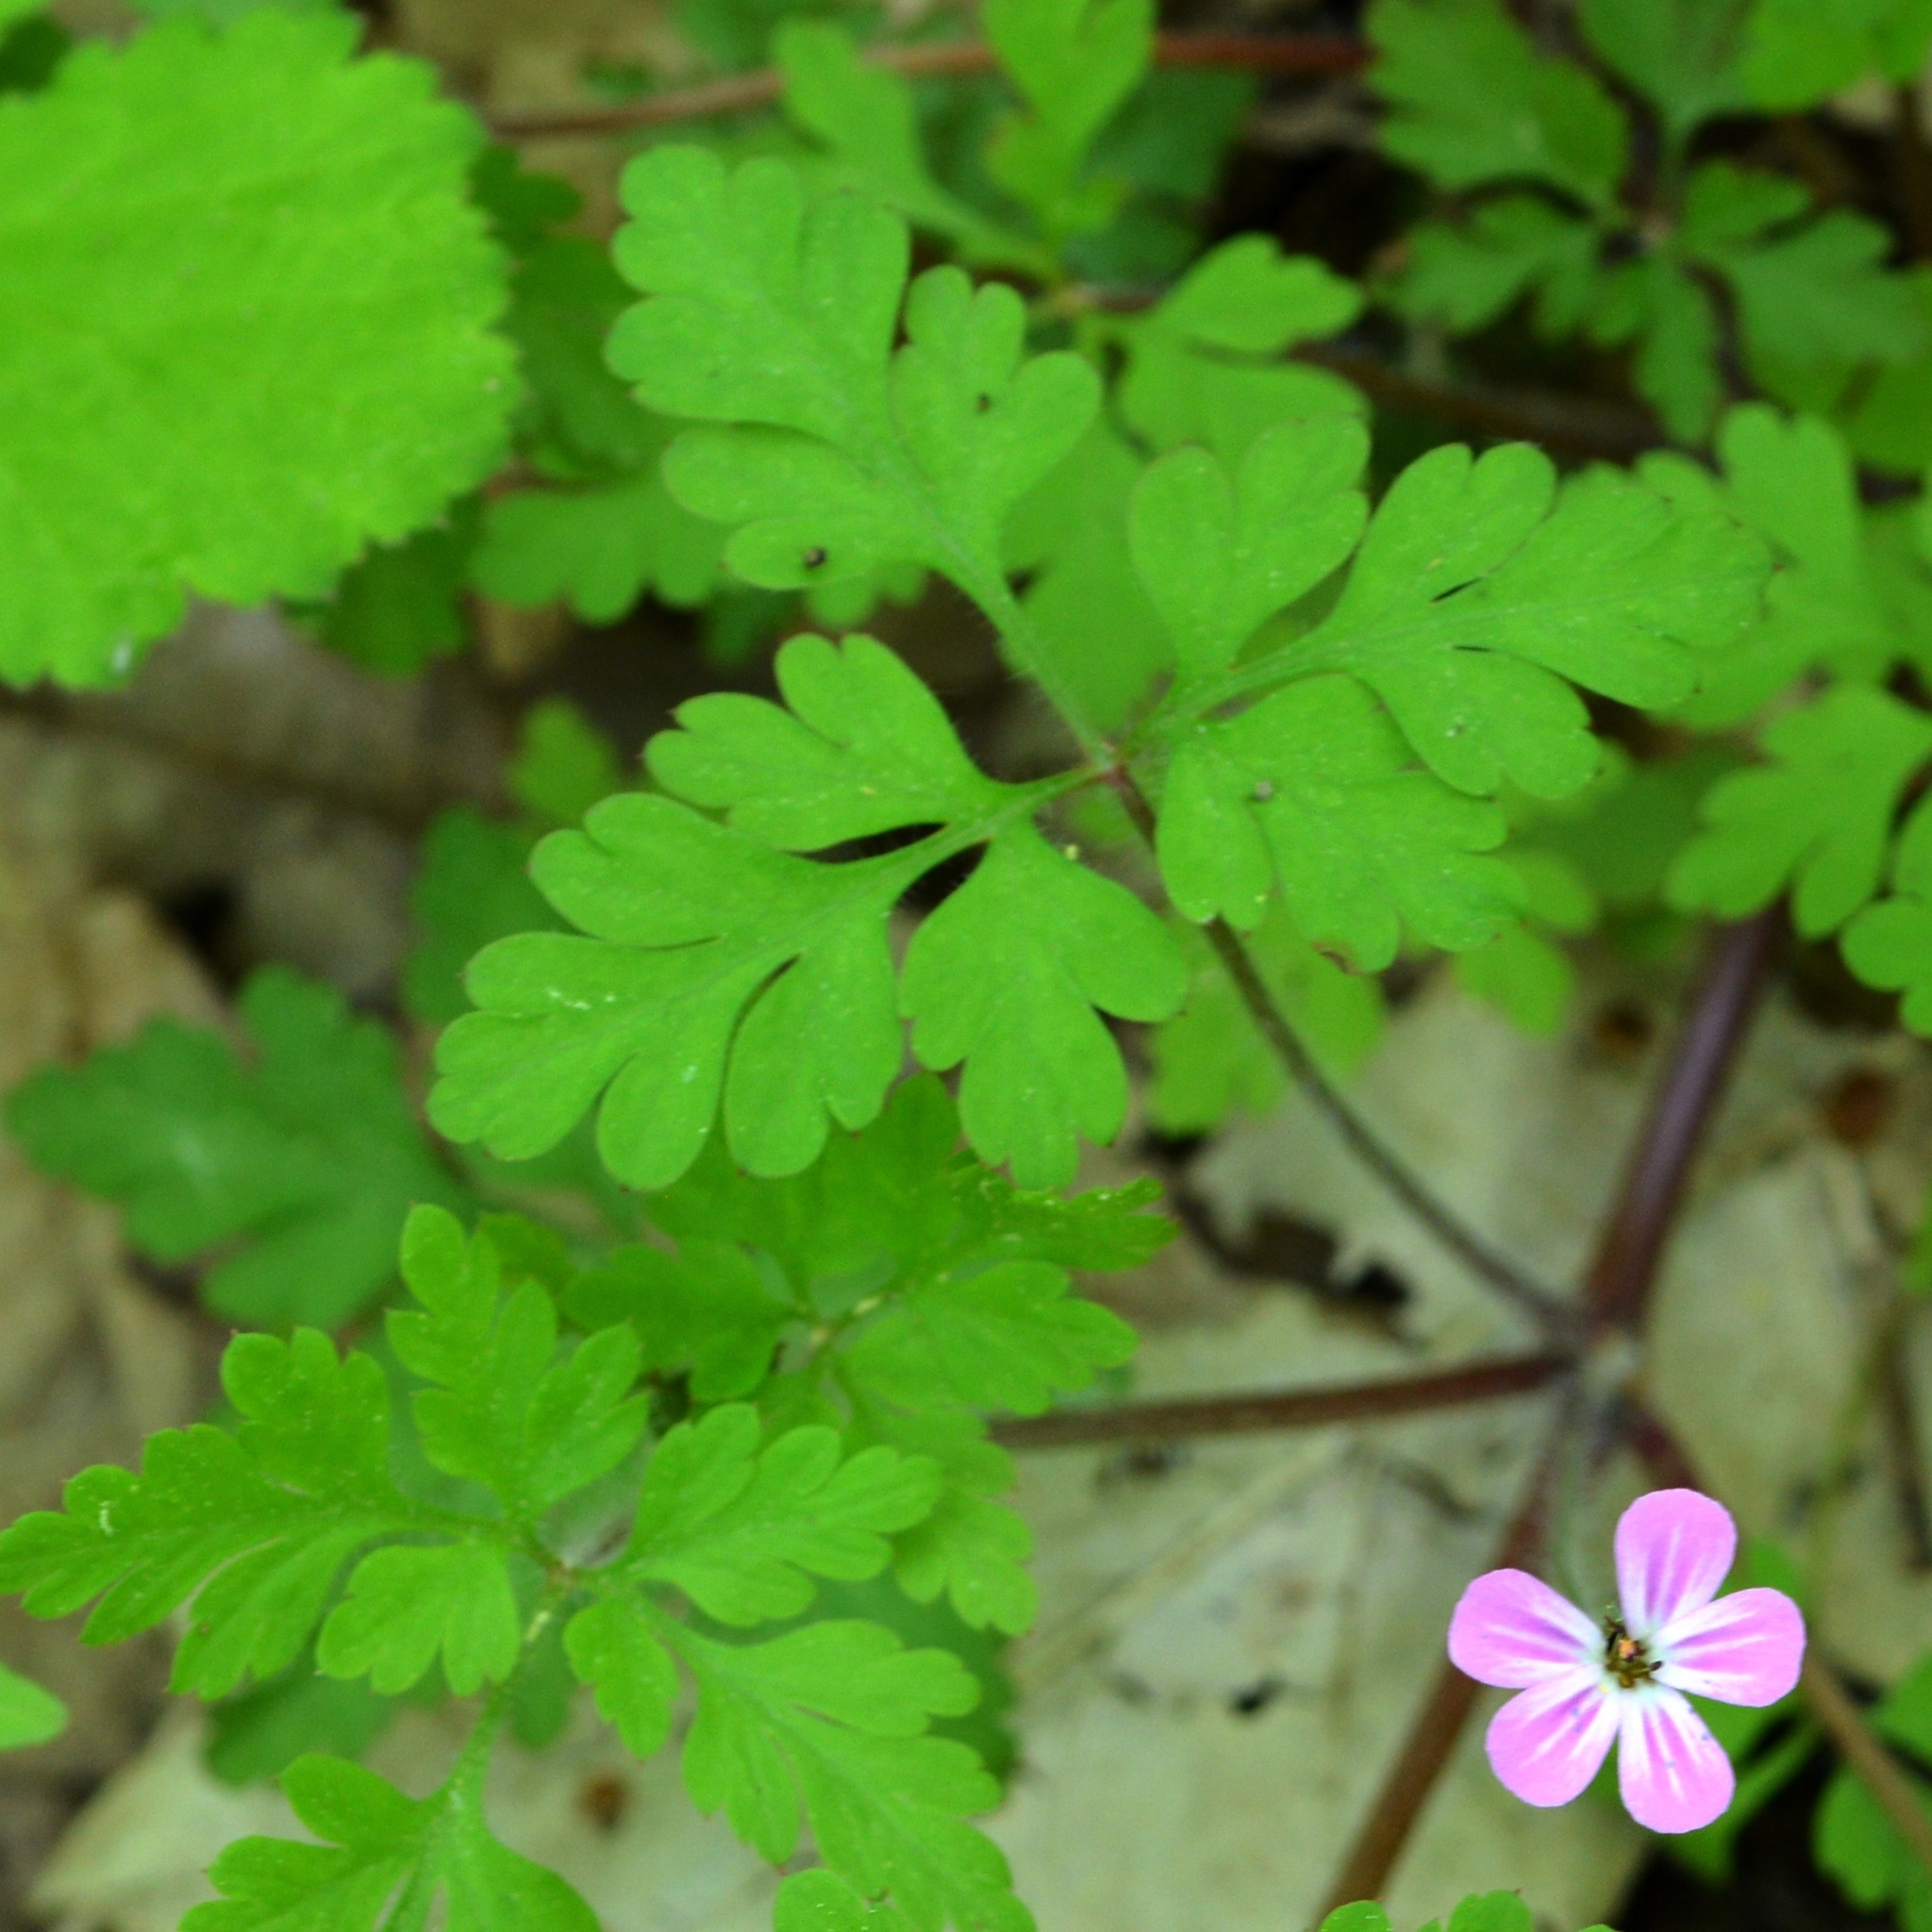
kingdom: Plantae
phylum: Tracheophyta
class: Magnoliopsida
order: Geraniales
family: Geraniaceae
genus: Geranium
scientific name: Geranium robertianum
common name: Herb-robert
